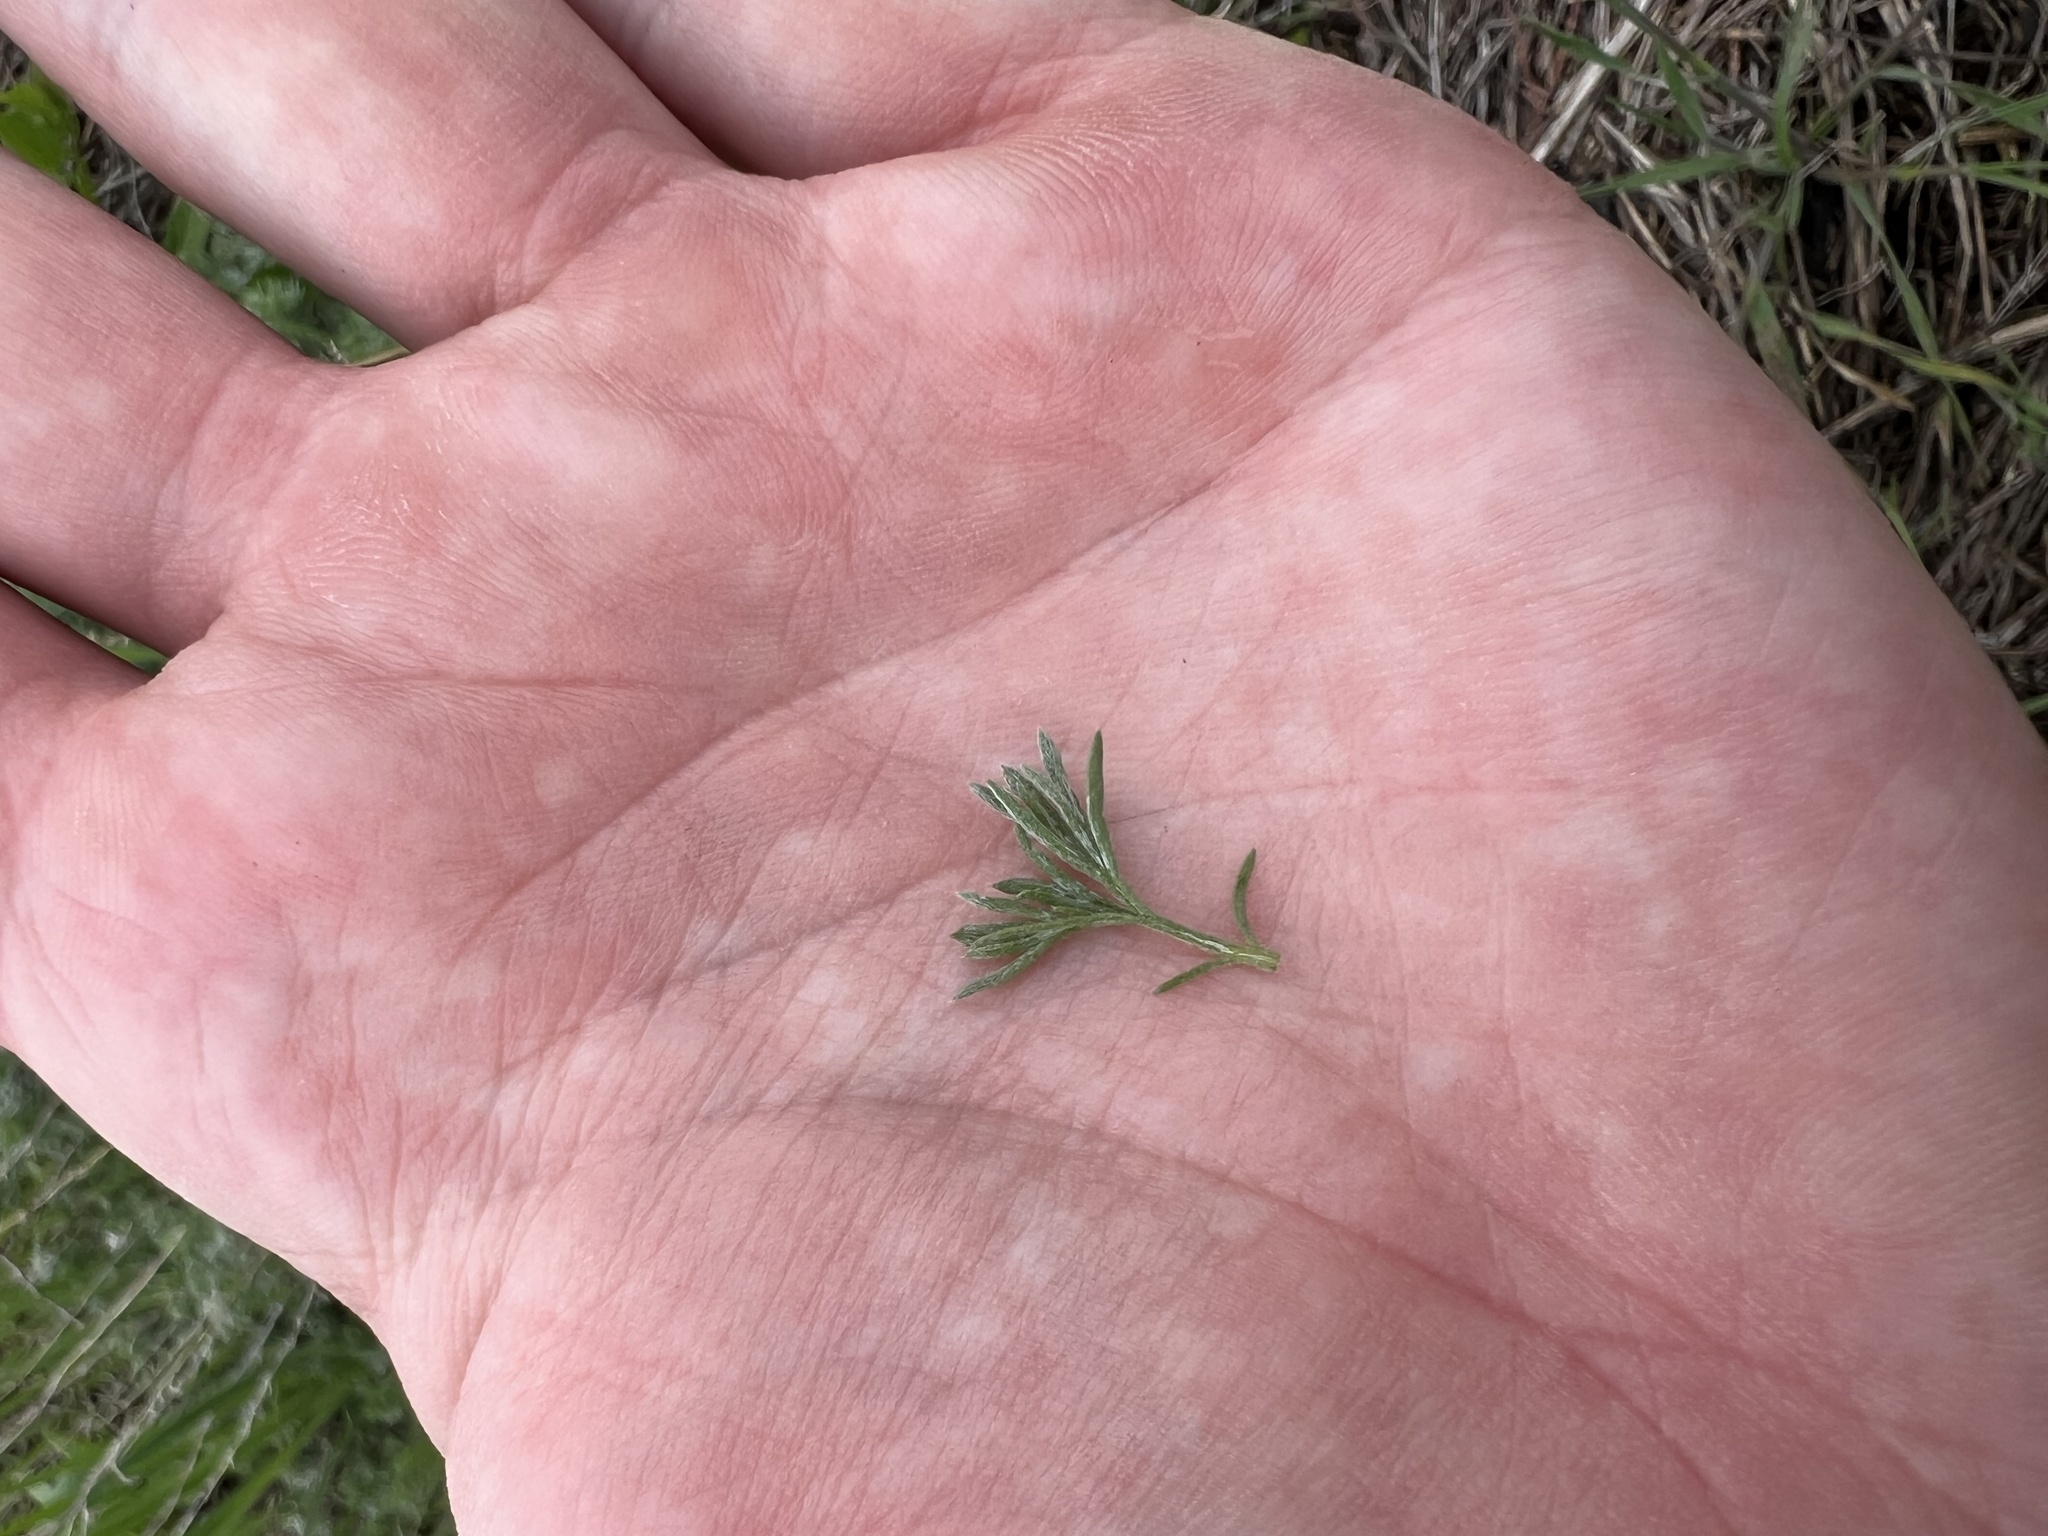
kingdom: Plantae
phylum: Tracheophyta
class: Magnoliopsida
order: Asterales
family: Asteraceae
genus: Artemisia
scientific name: Artemisia frigida
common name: Prairie sagewort
